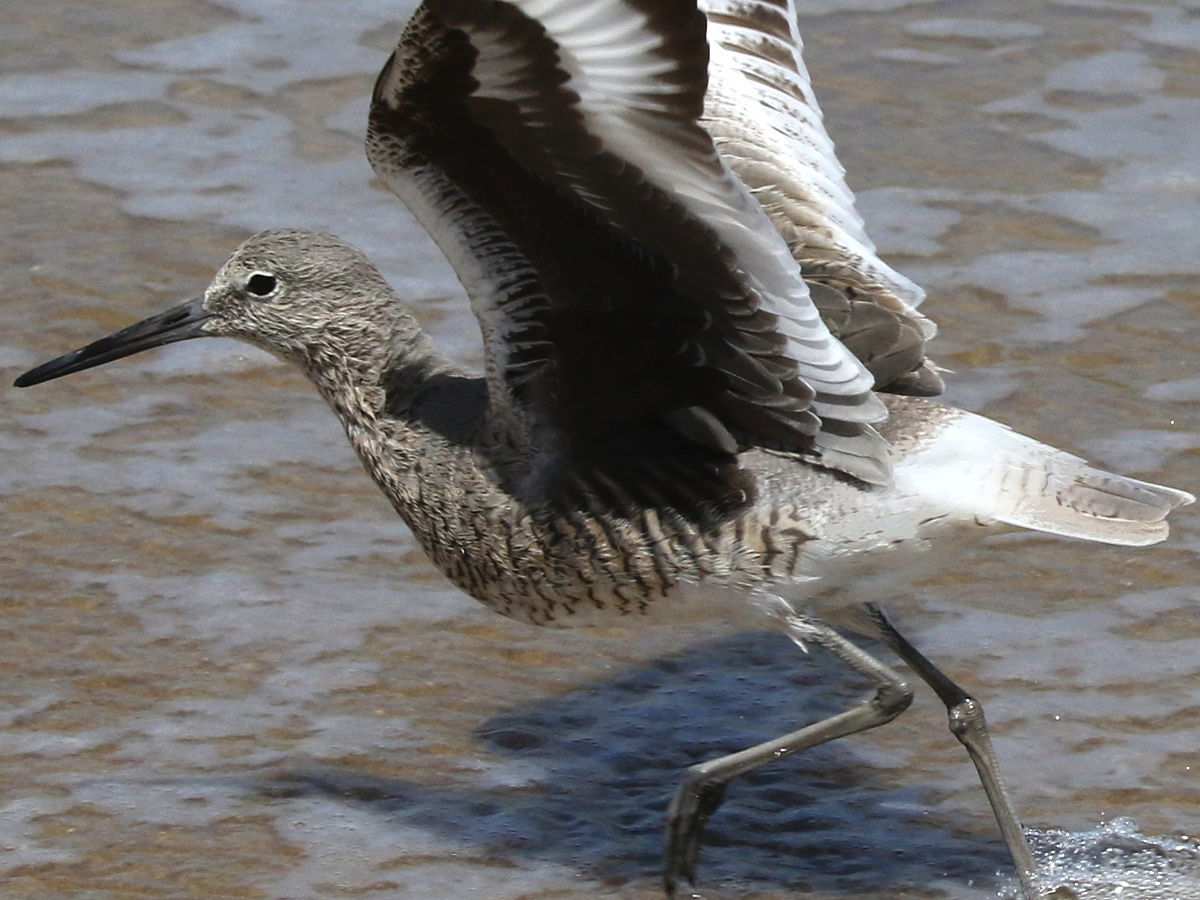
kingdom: Animalia
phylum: Chordata
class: Aves
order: Charadriiformes
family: Scolopacidae
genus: Tringa
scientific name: Tringa semipalmata
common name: Willet
